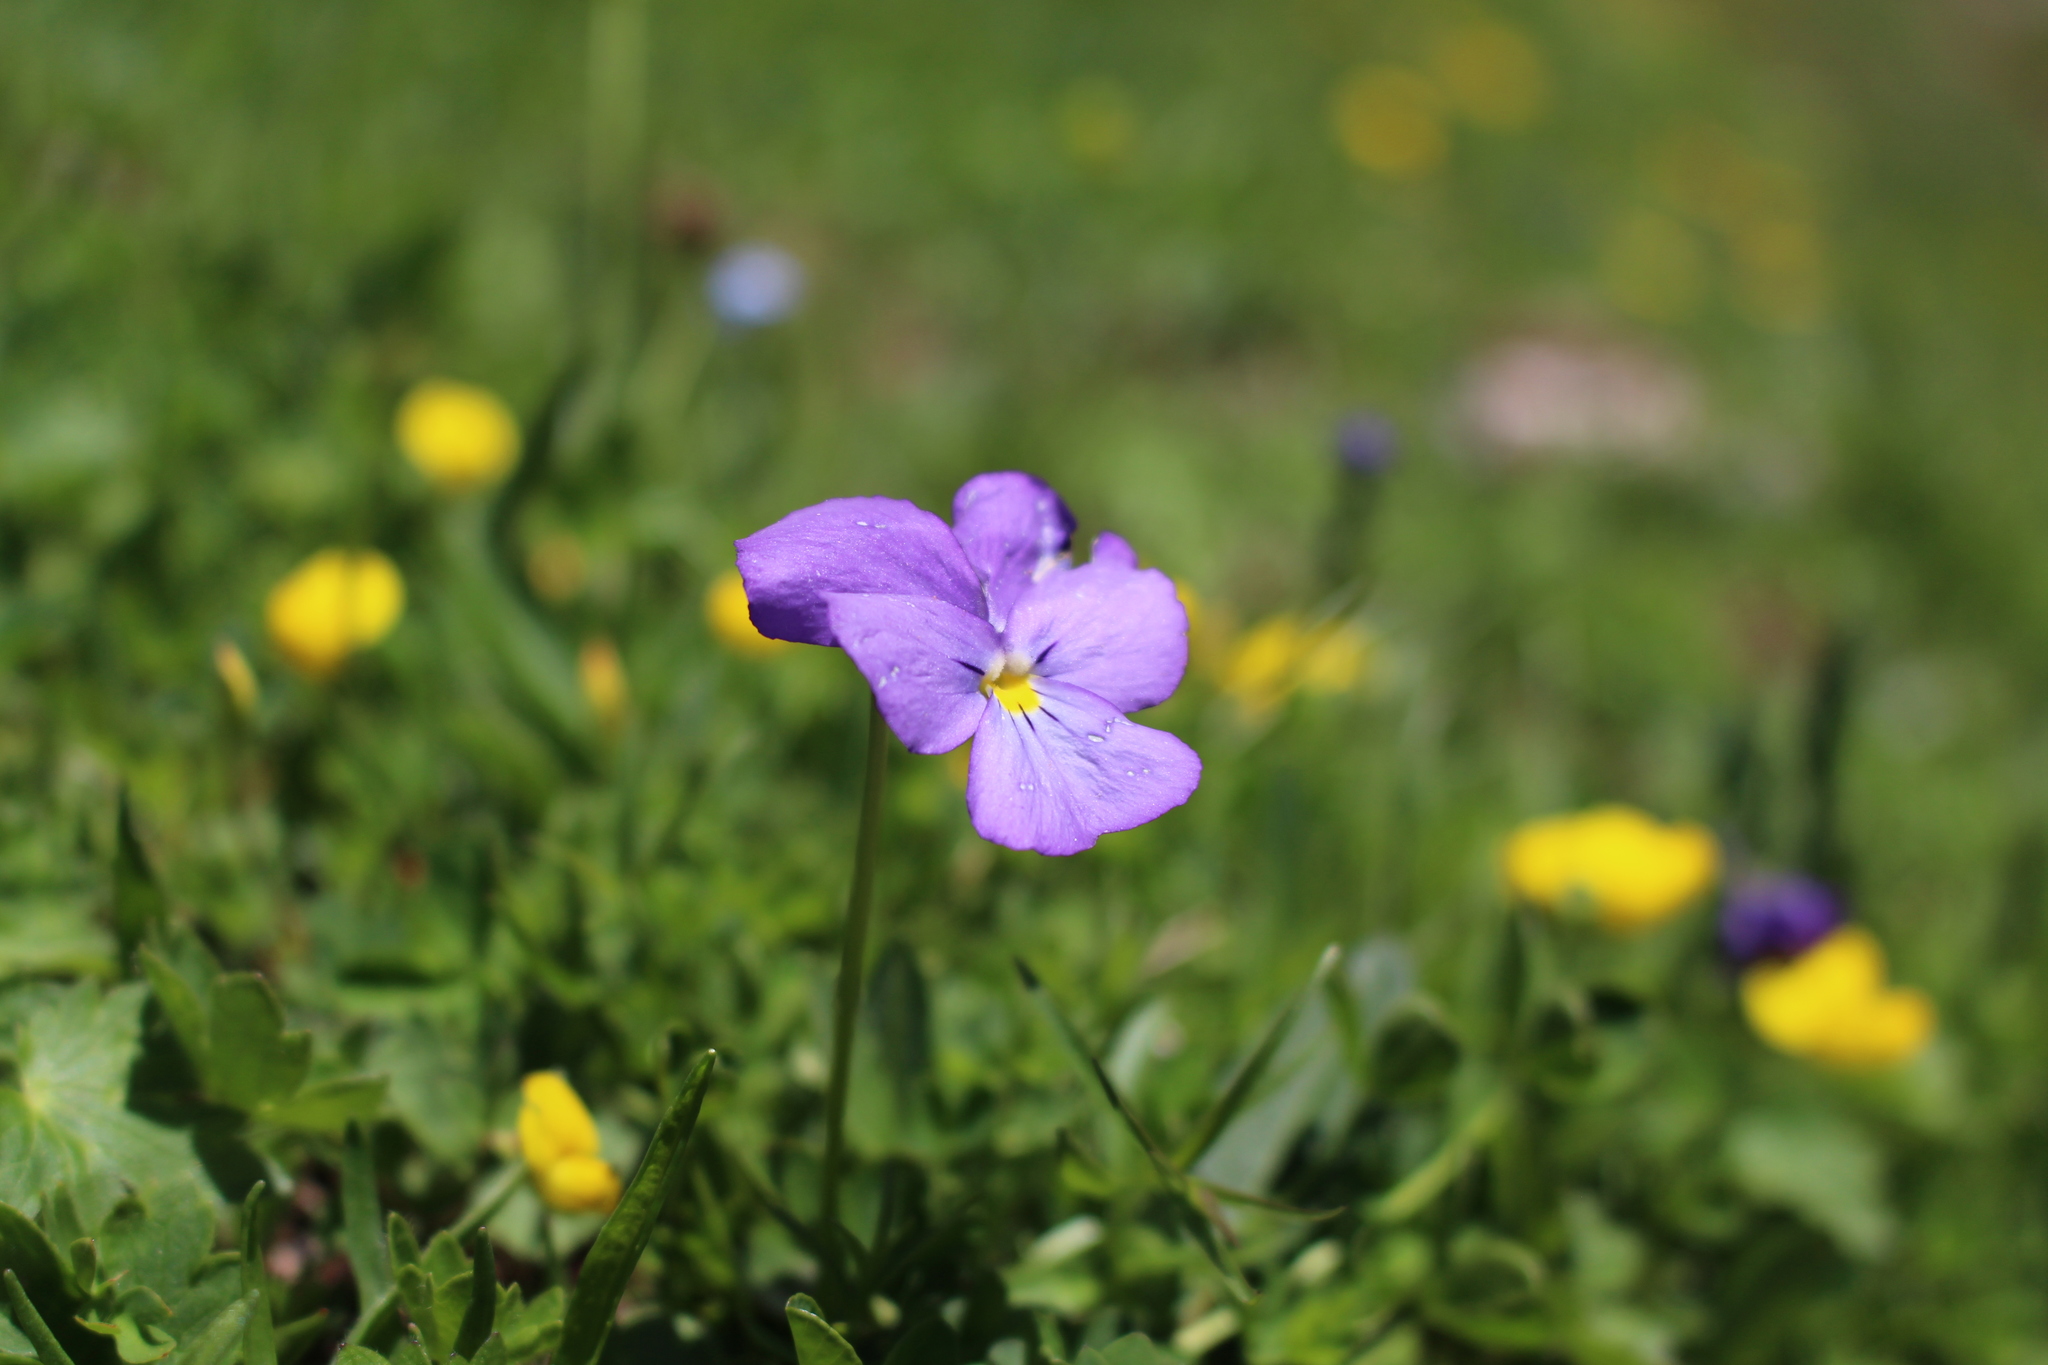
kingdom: Plantae
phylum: Tracheophyta
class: Magnoliopsida
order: Malpighiales
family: Violaceae
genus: Viola
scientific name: Viola calcarata
